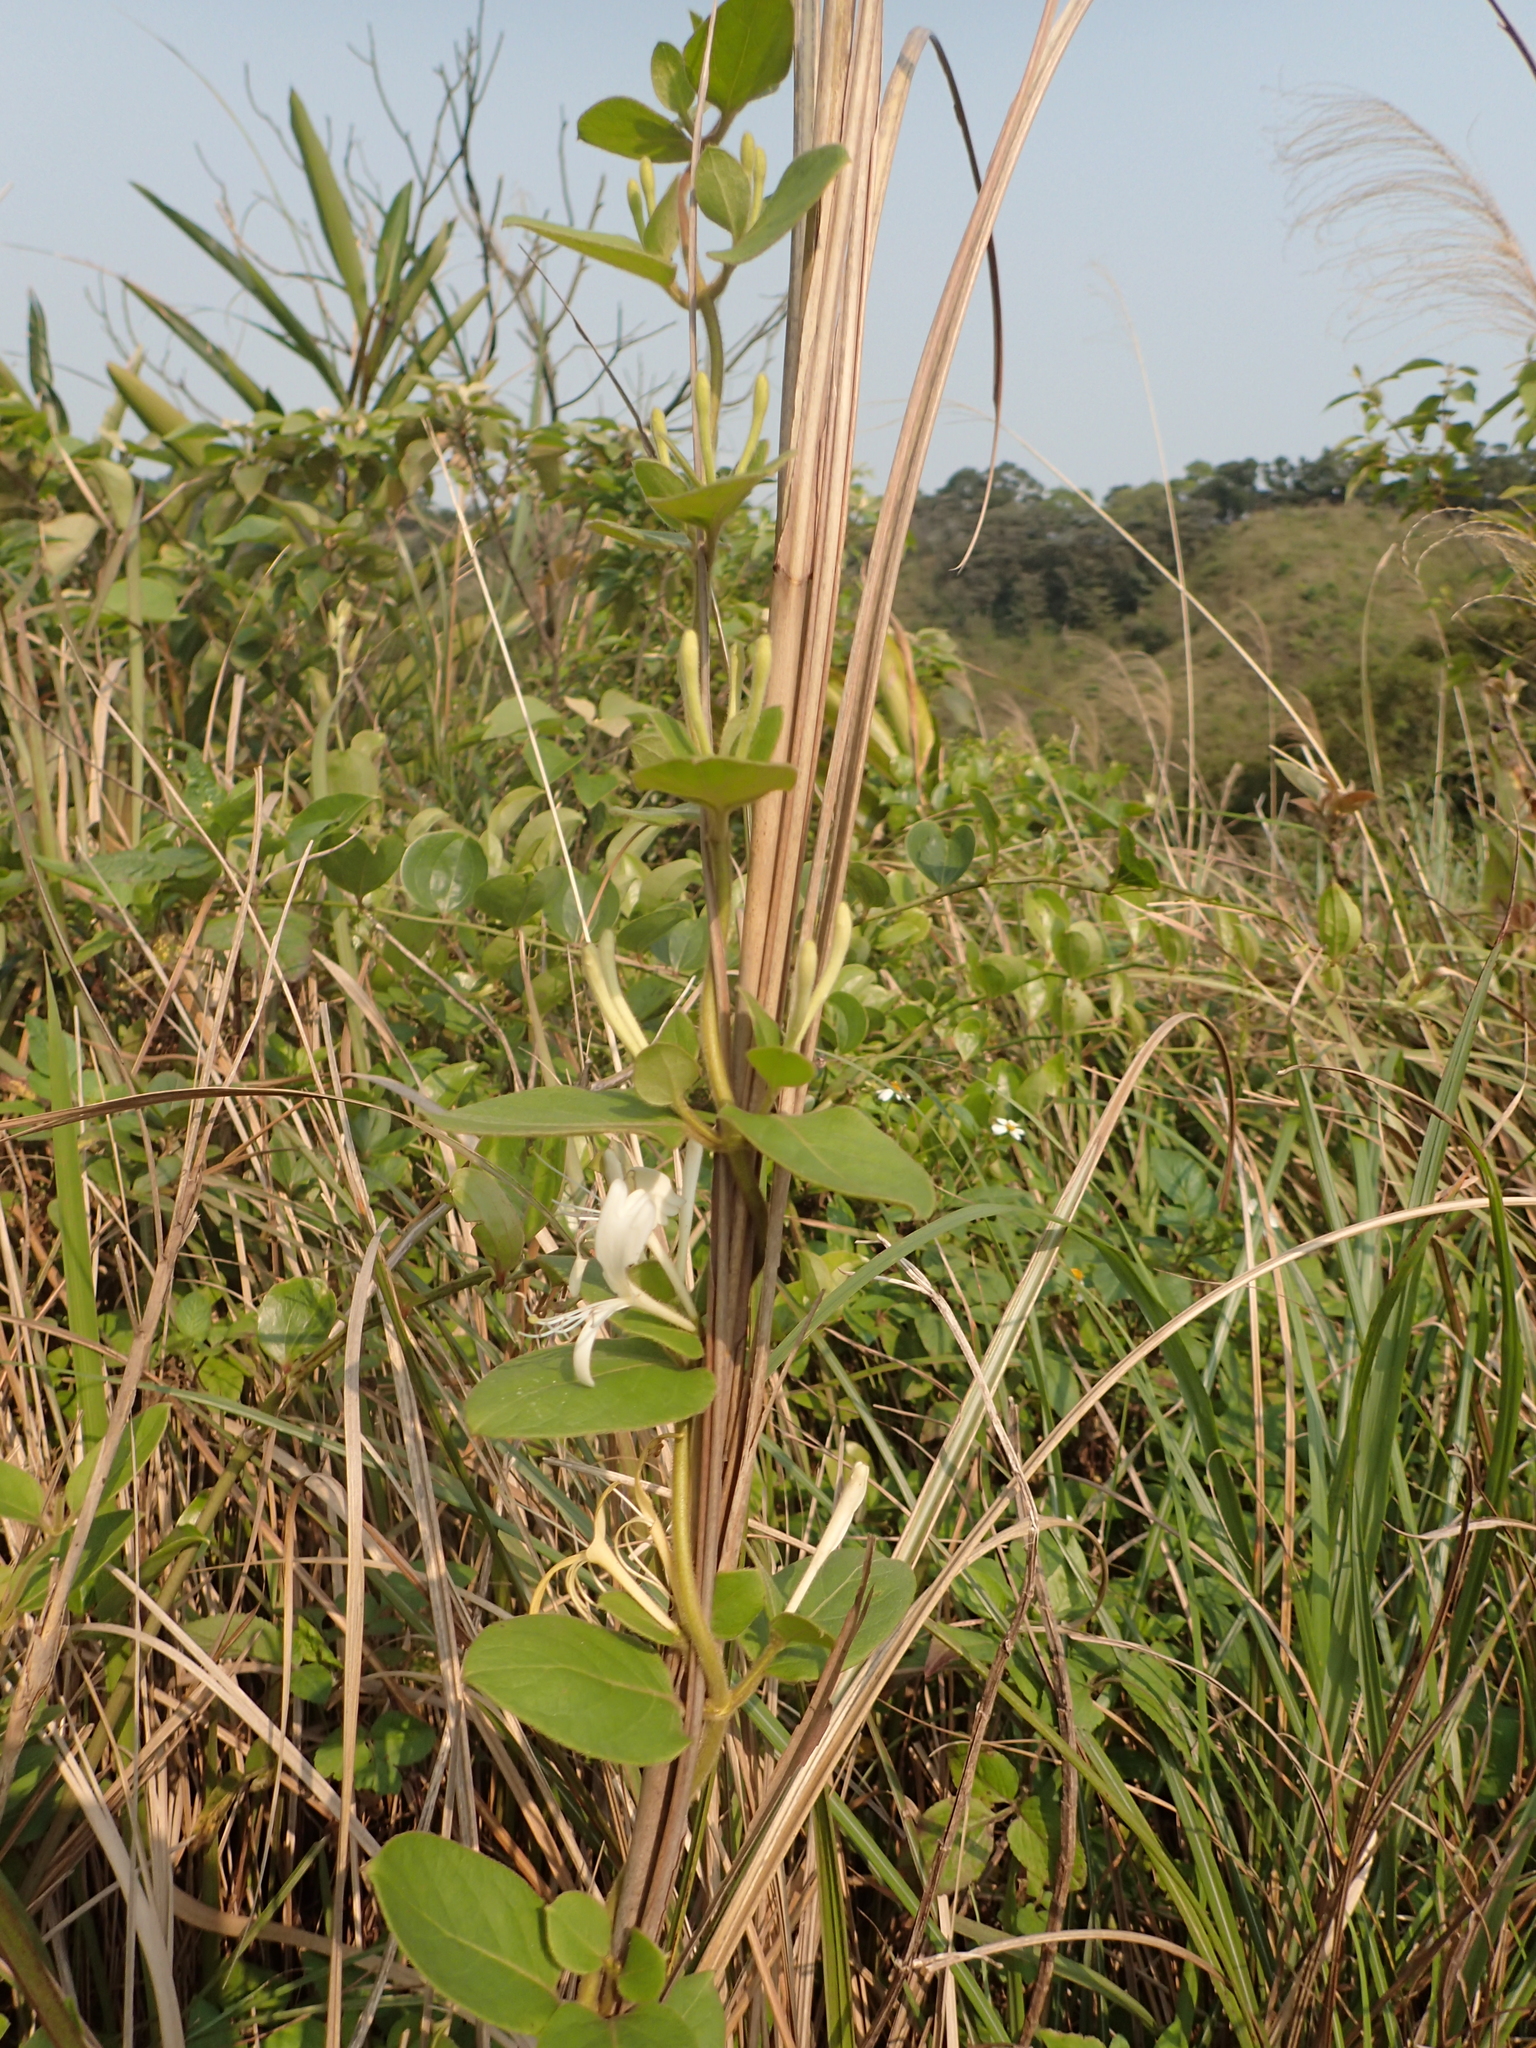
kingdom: Plantae
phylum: Tracheophyta
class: Magnoliopsida
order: Dipsacales
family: Caprifoliaceae
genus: Lonicera
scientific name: Lonicera japonica
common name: Japanese honeysuckle
